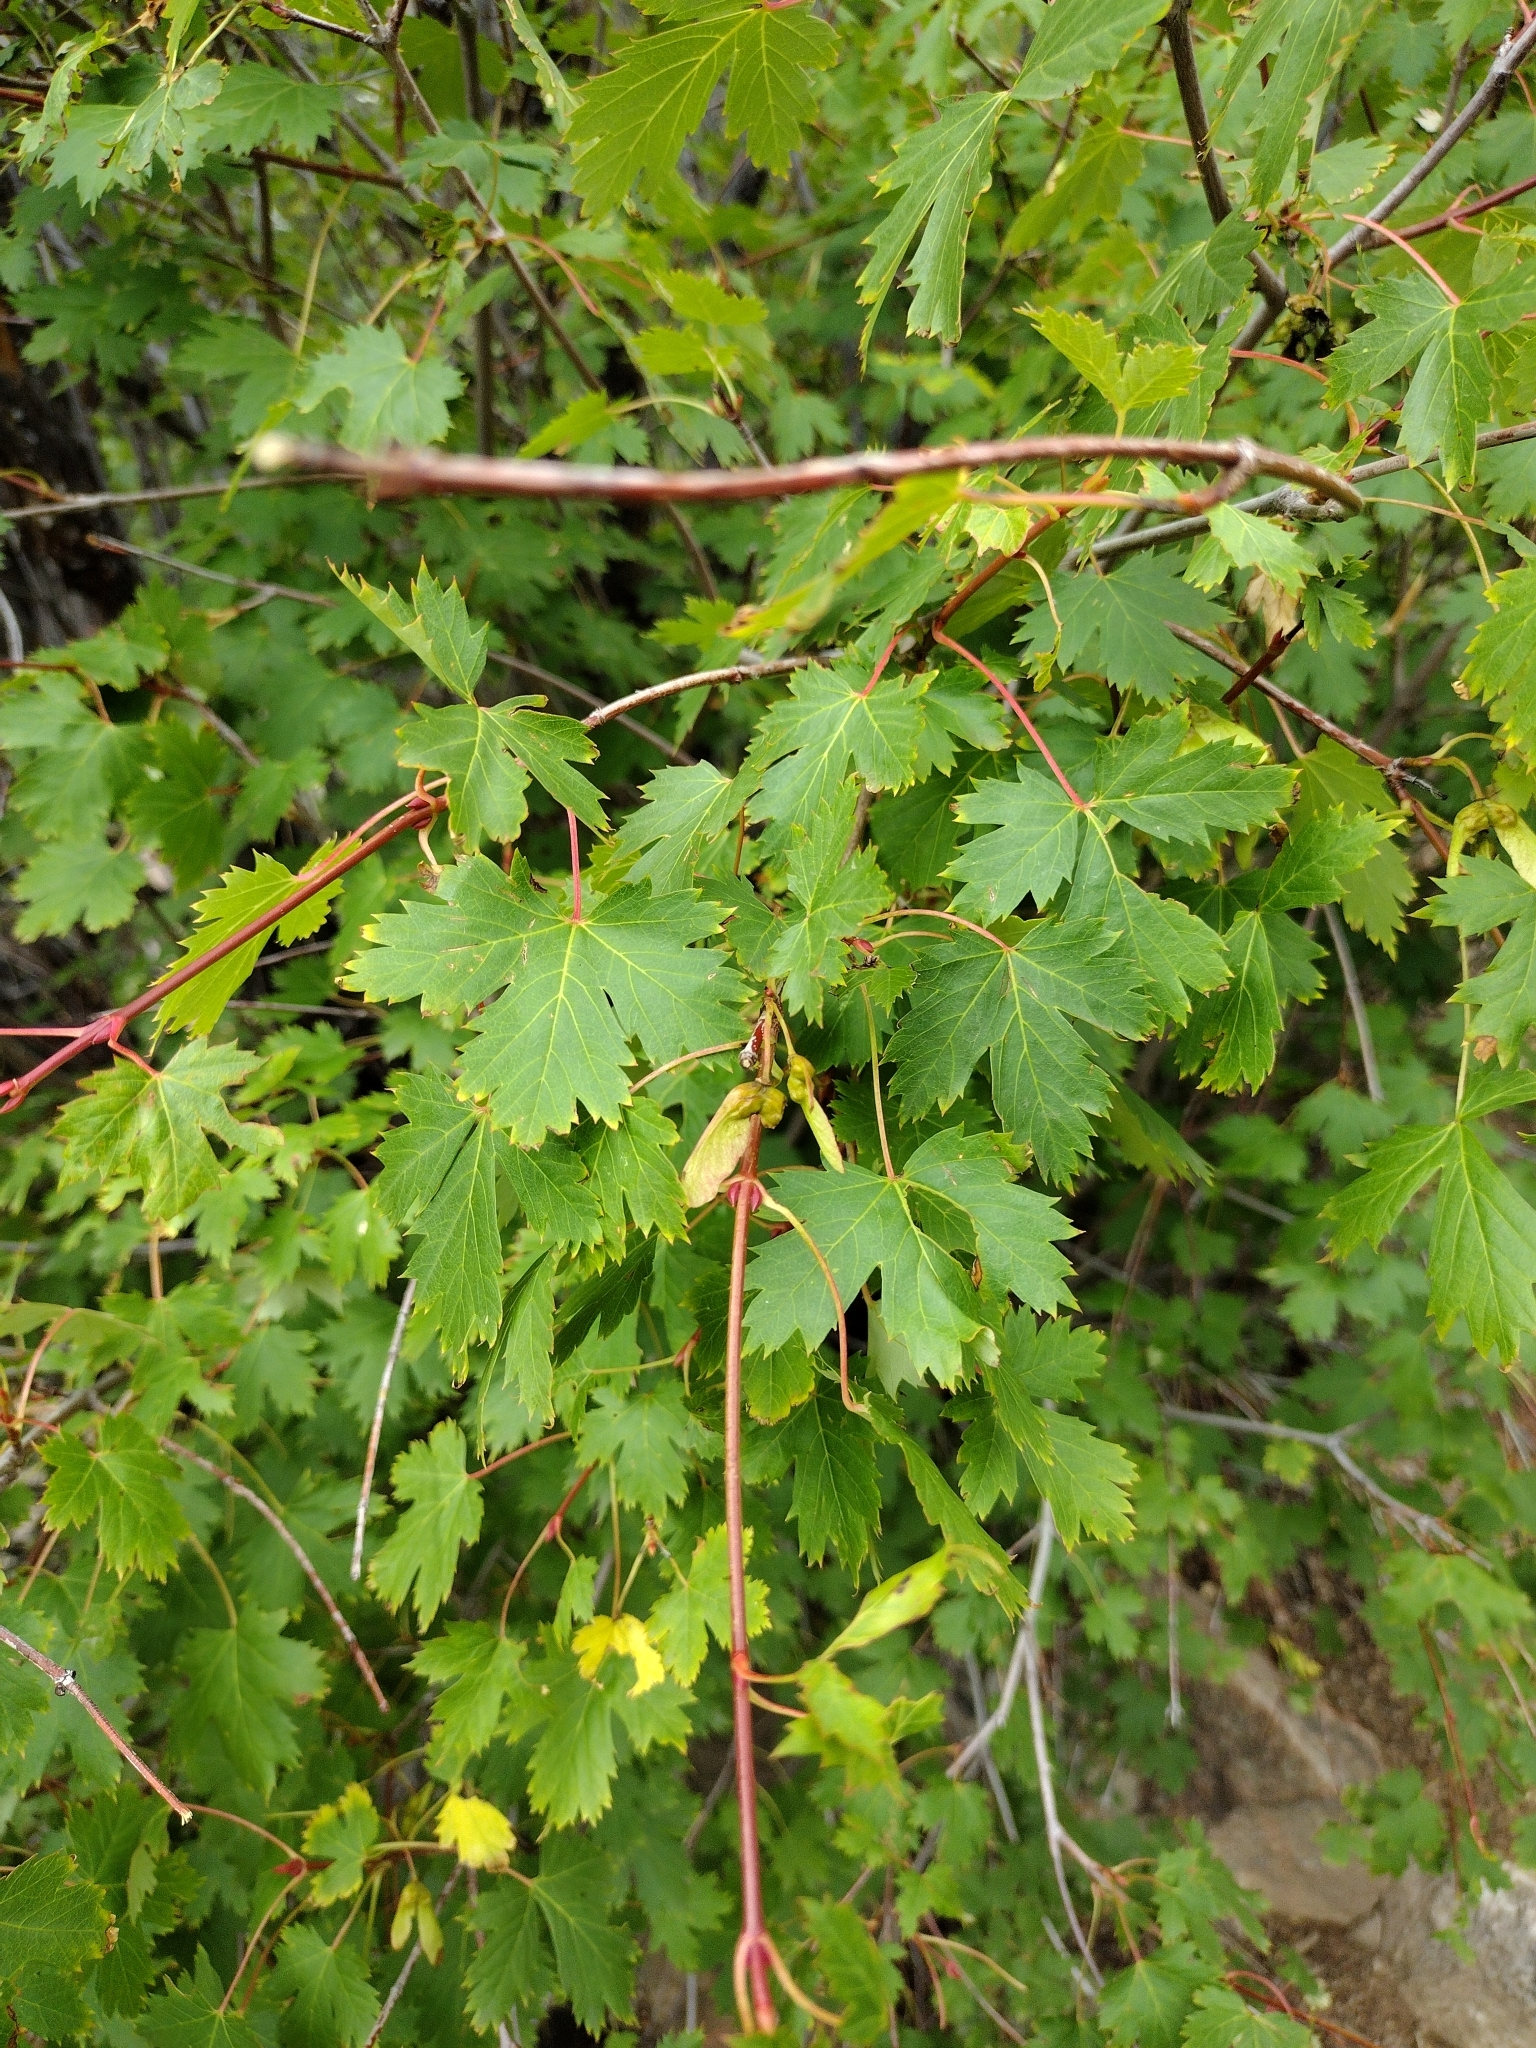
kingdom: Plantae
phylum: Tracheophyta
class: Magnoliopsida
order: Sapindales
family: Sapindaceae
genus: Acer
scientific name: Acer glabrum
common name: Rocky mountain maple
